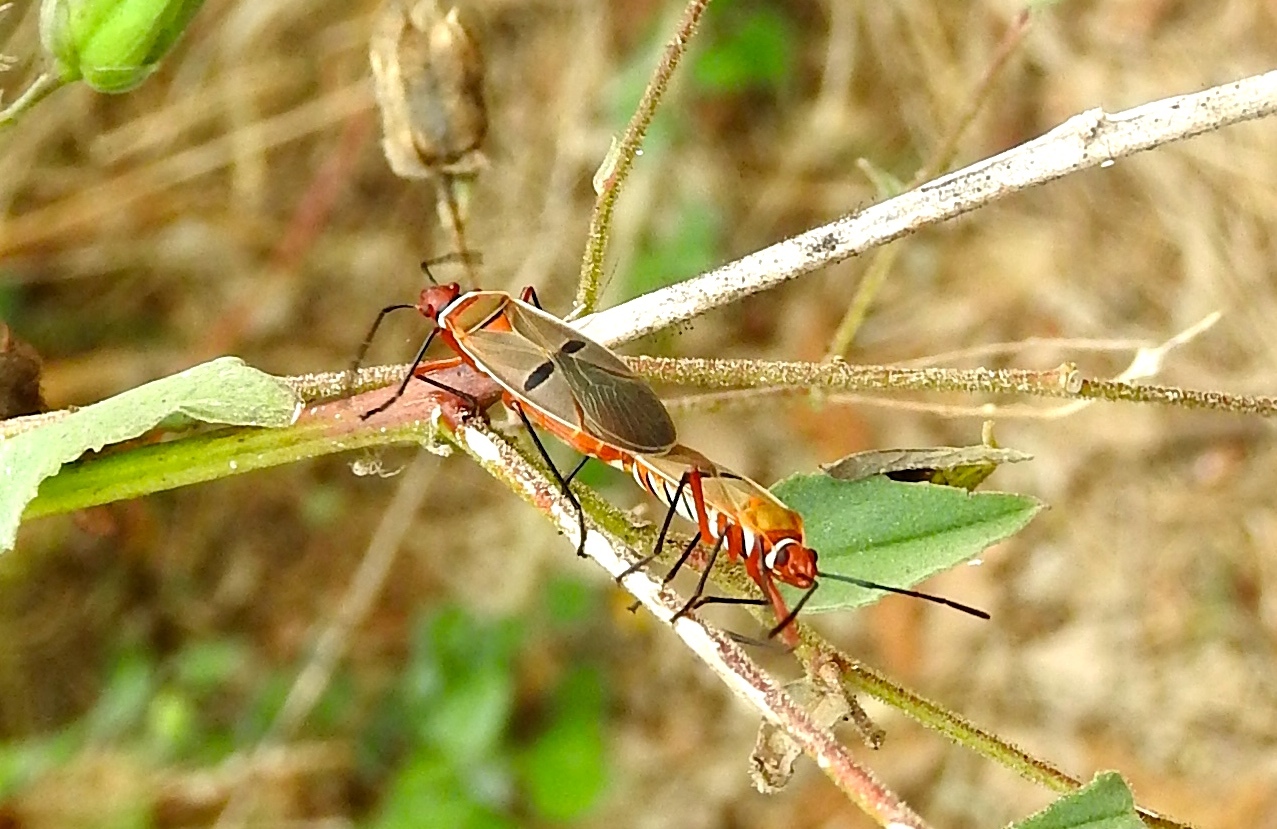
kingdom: Animalia
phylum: Arthropoda
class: Insecta
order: Hemiptera
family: Pyrrhocoridae
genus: Dysdercus
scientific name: Dysdercus
